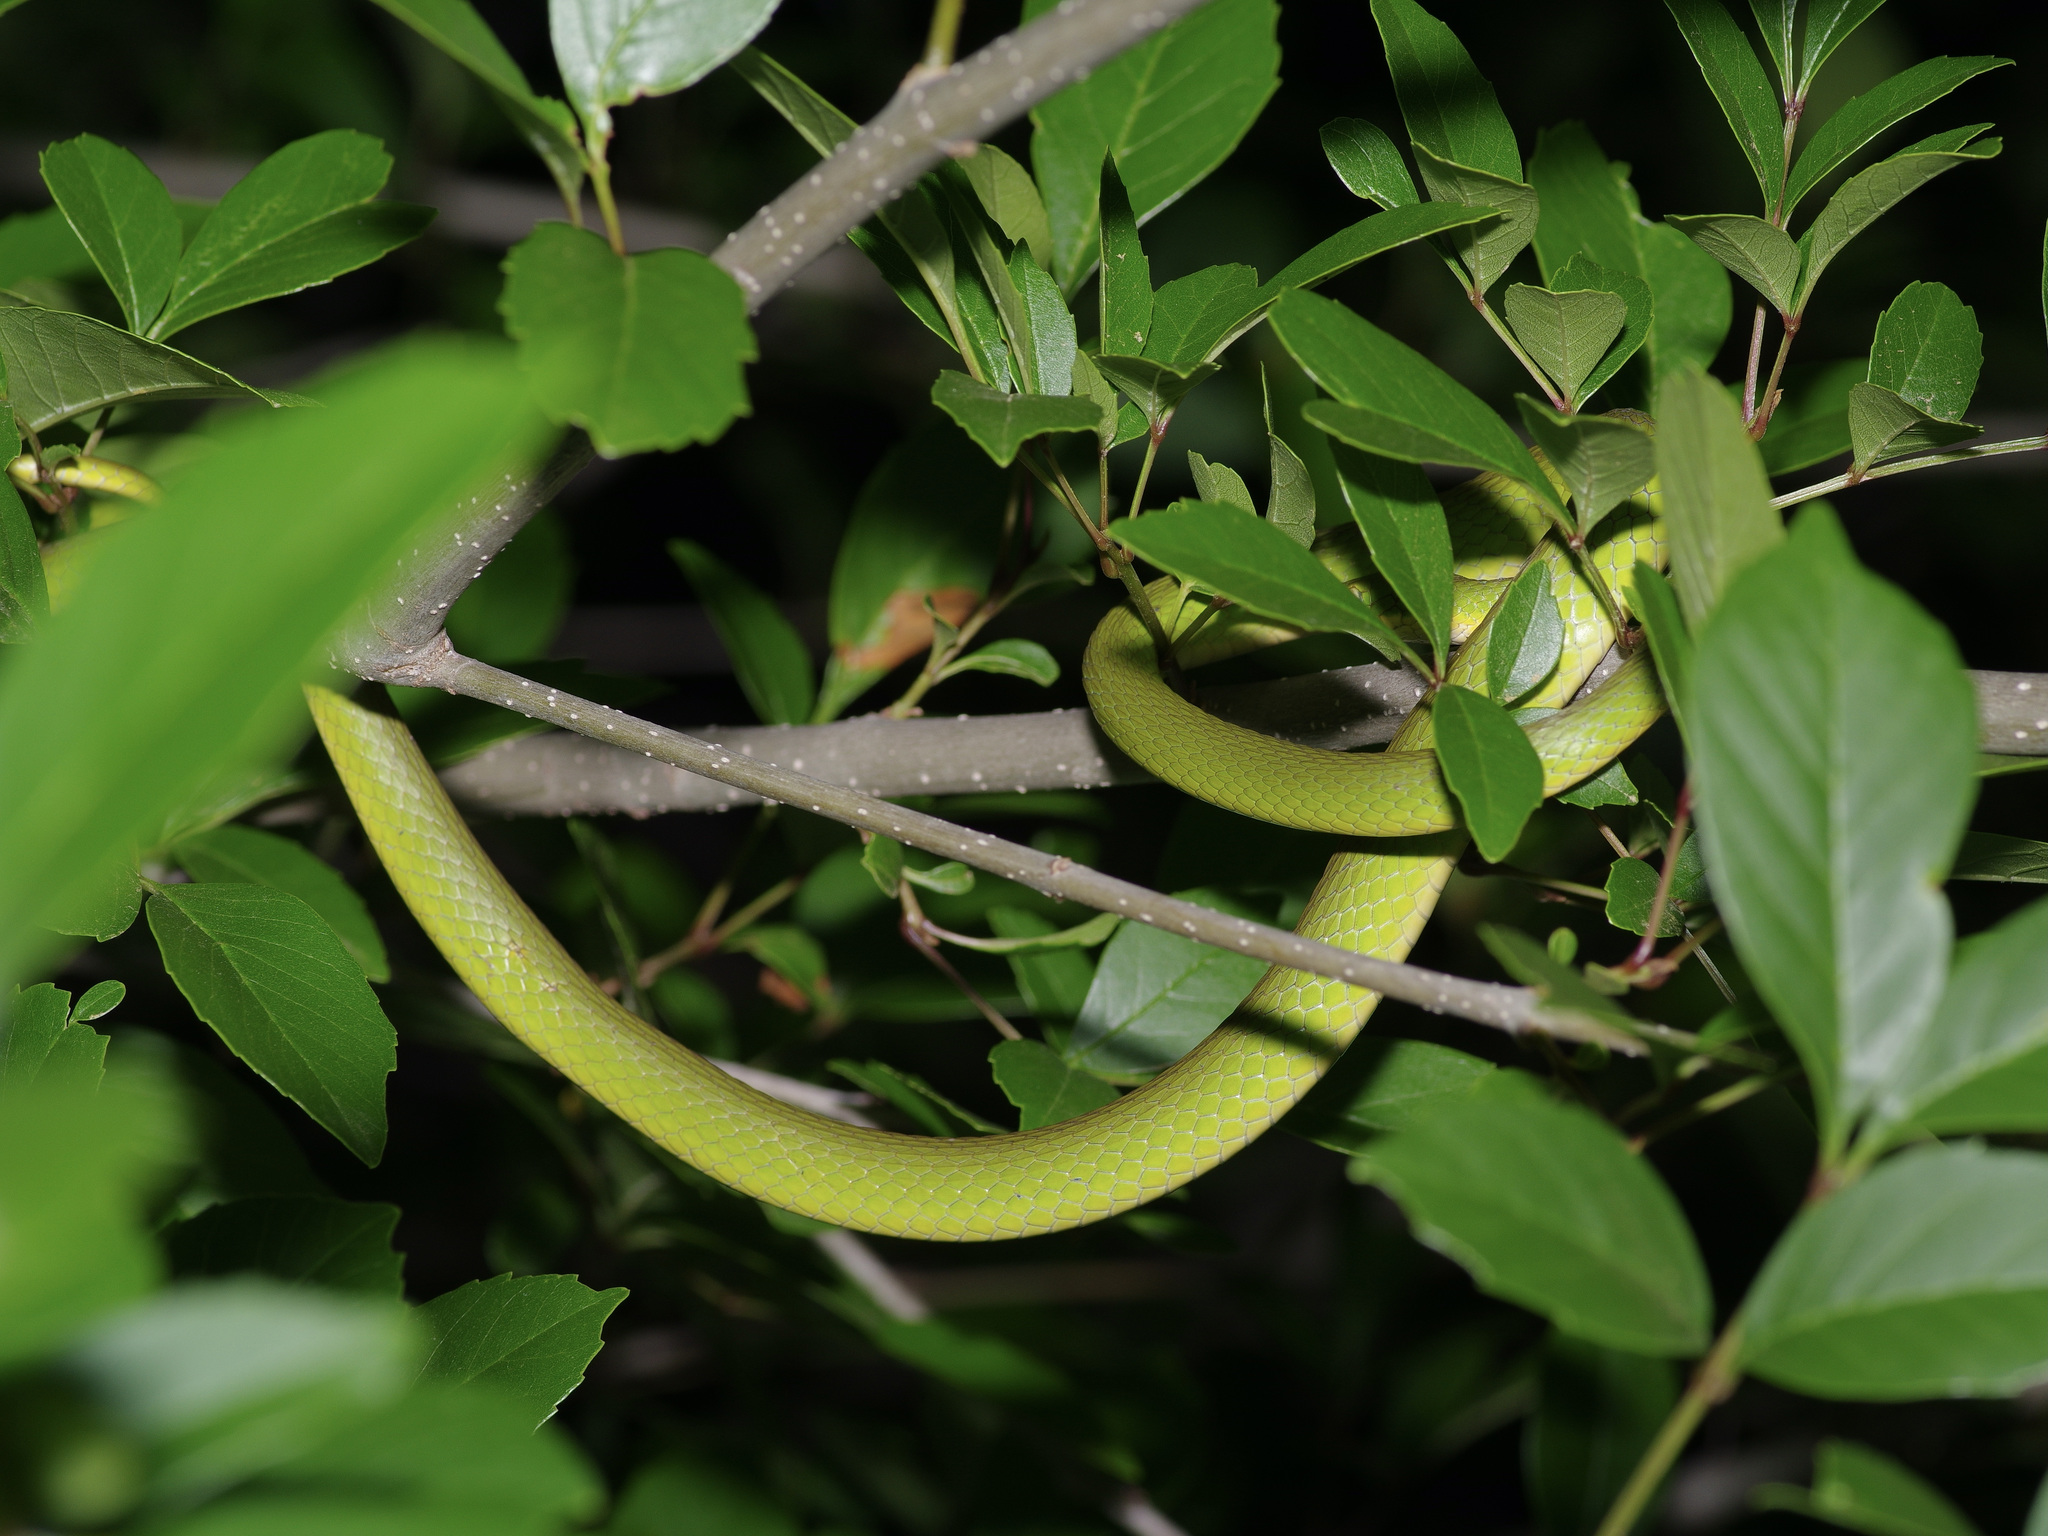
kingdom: Animalia
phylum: Chordata
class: Squamata
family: Colubridae
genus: Opheodrys
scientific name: Opheodrys aestivus
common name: Rough greensnake
